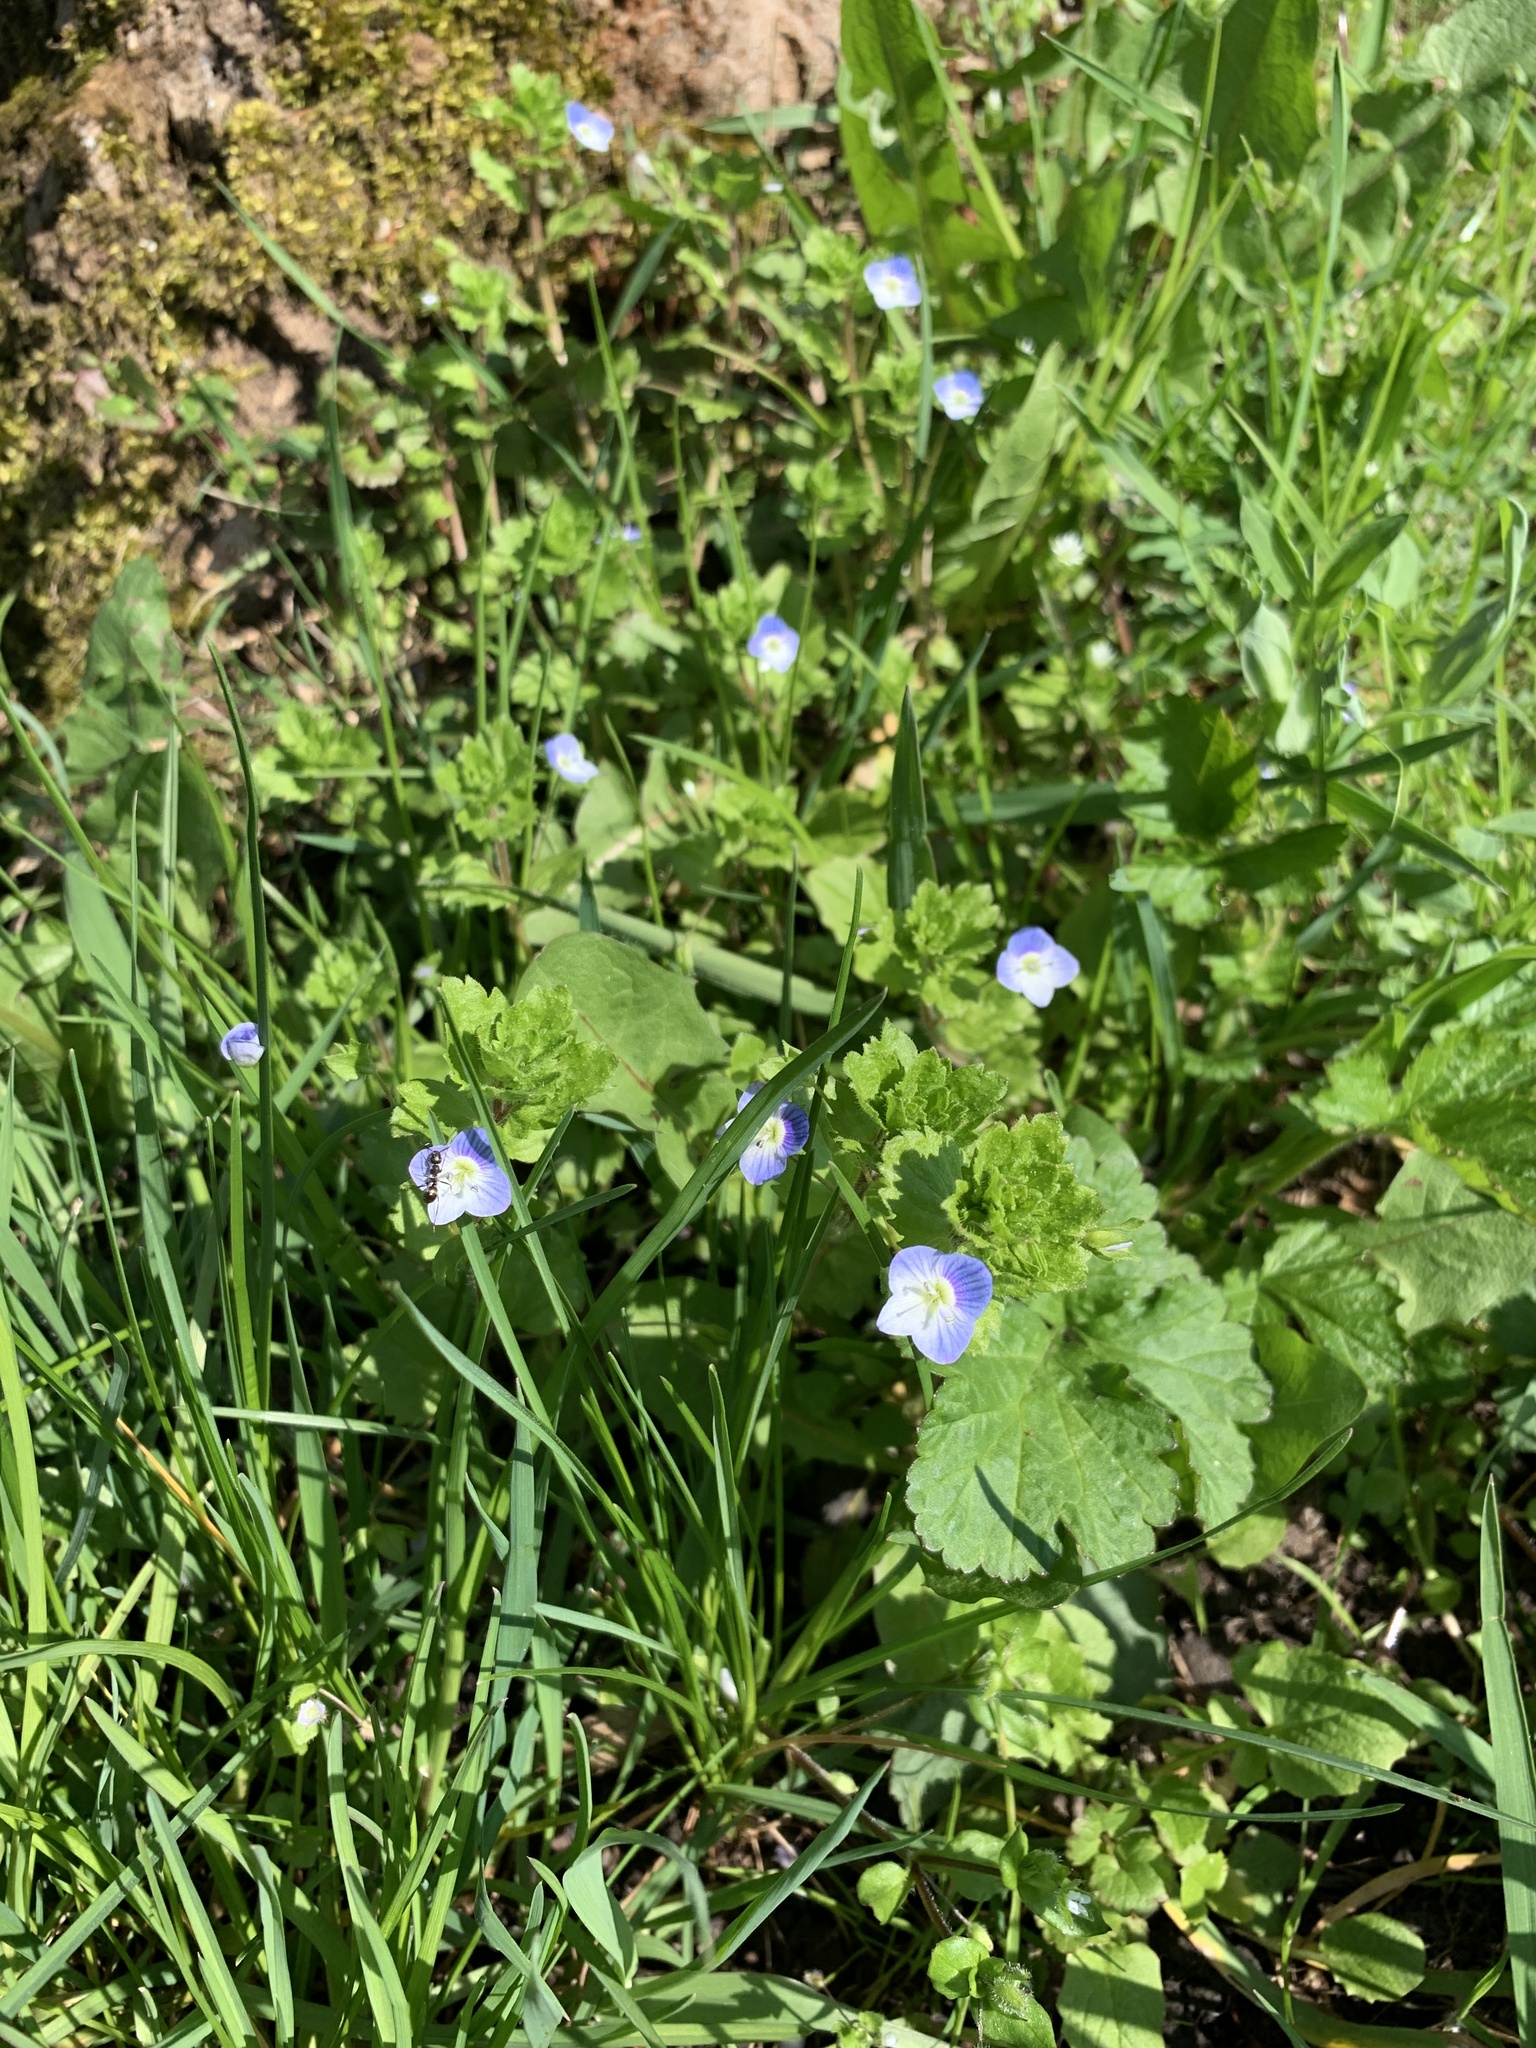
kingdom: Plantae
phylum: Tracheophyta
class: Magnoliopsida
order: Lamiales
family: Plantaginaceae
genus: Veronica
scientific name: Veronica persica
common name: Common field-speedwell
